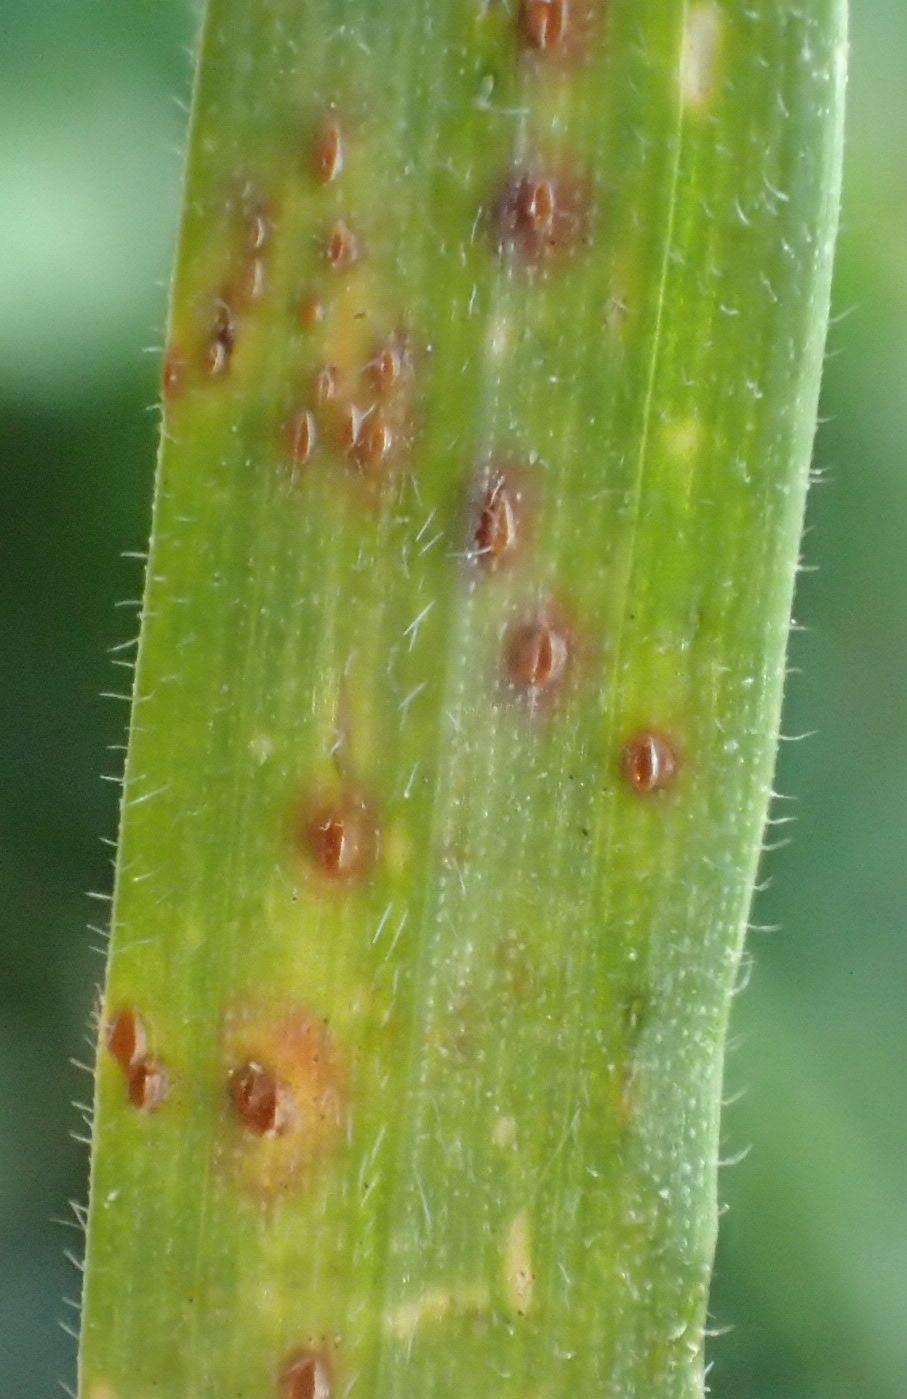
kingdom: Fungi
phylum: Basidiomycota
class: Pucciniomycetes
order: Pucciniales
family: Pucciniaceae
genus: Puccinia
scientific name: Puccinia recondita
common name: Brown rust of wheat
